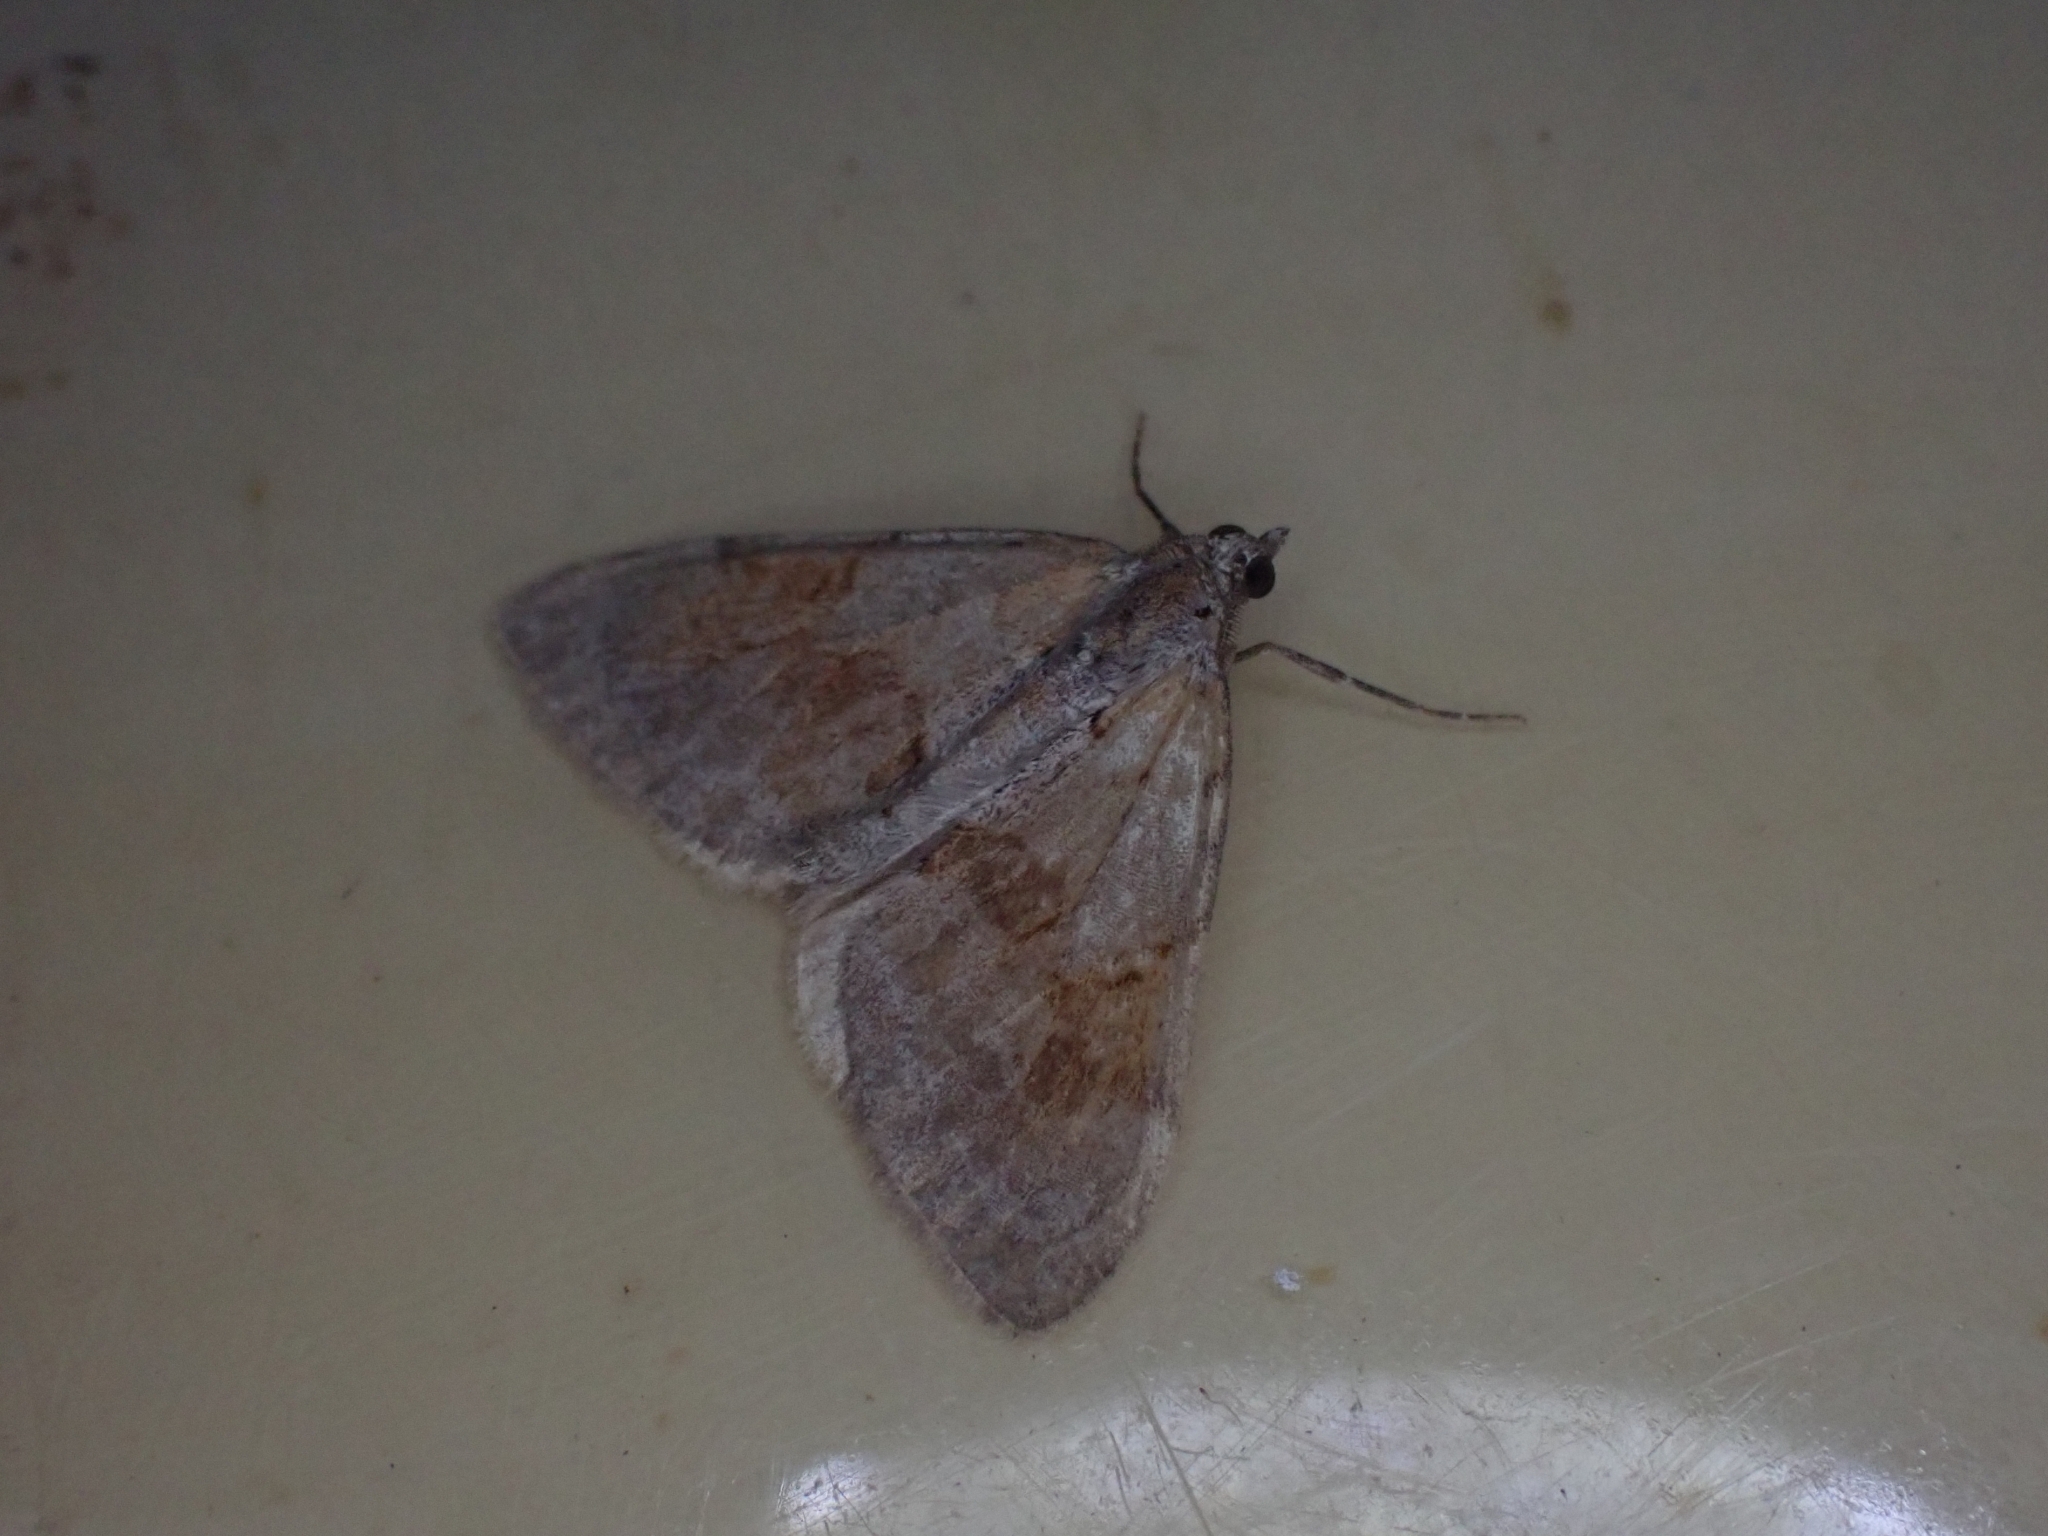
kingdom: Animalia
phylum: Arthropoda
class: Insecta
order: Lepidoptera
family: Geometridae
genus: Pennithera
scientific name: Pennithera firmata
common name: Pine carpet
